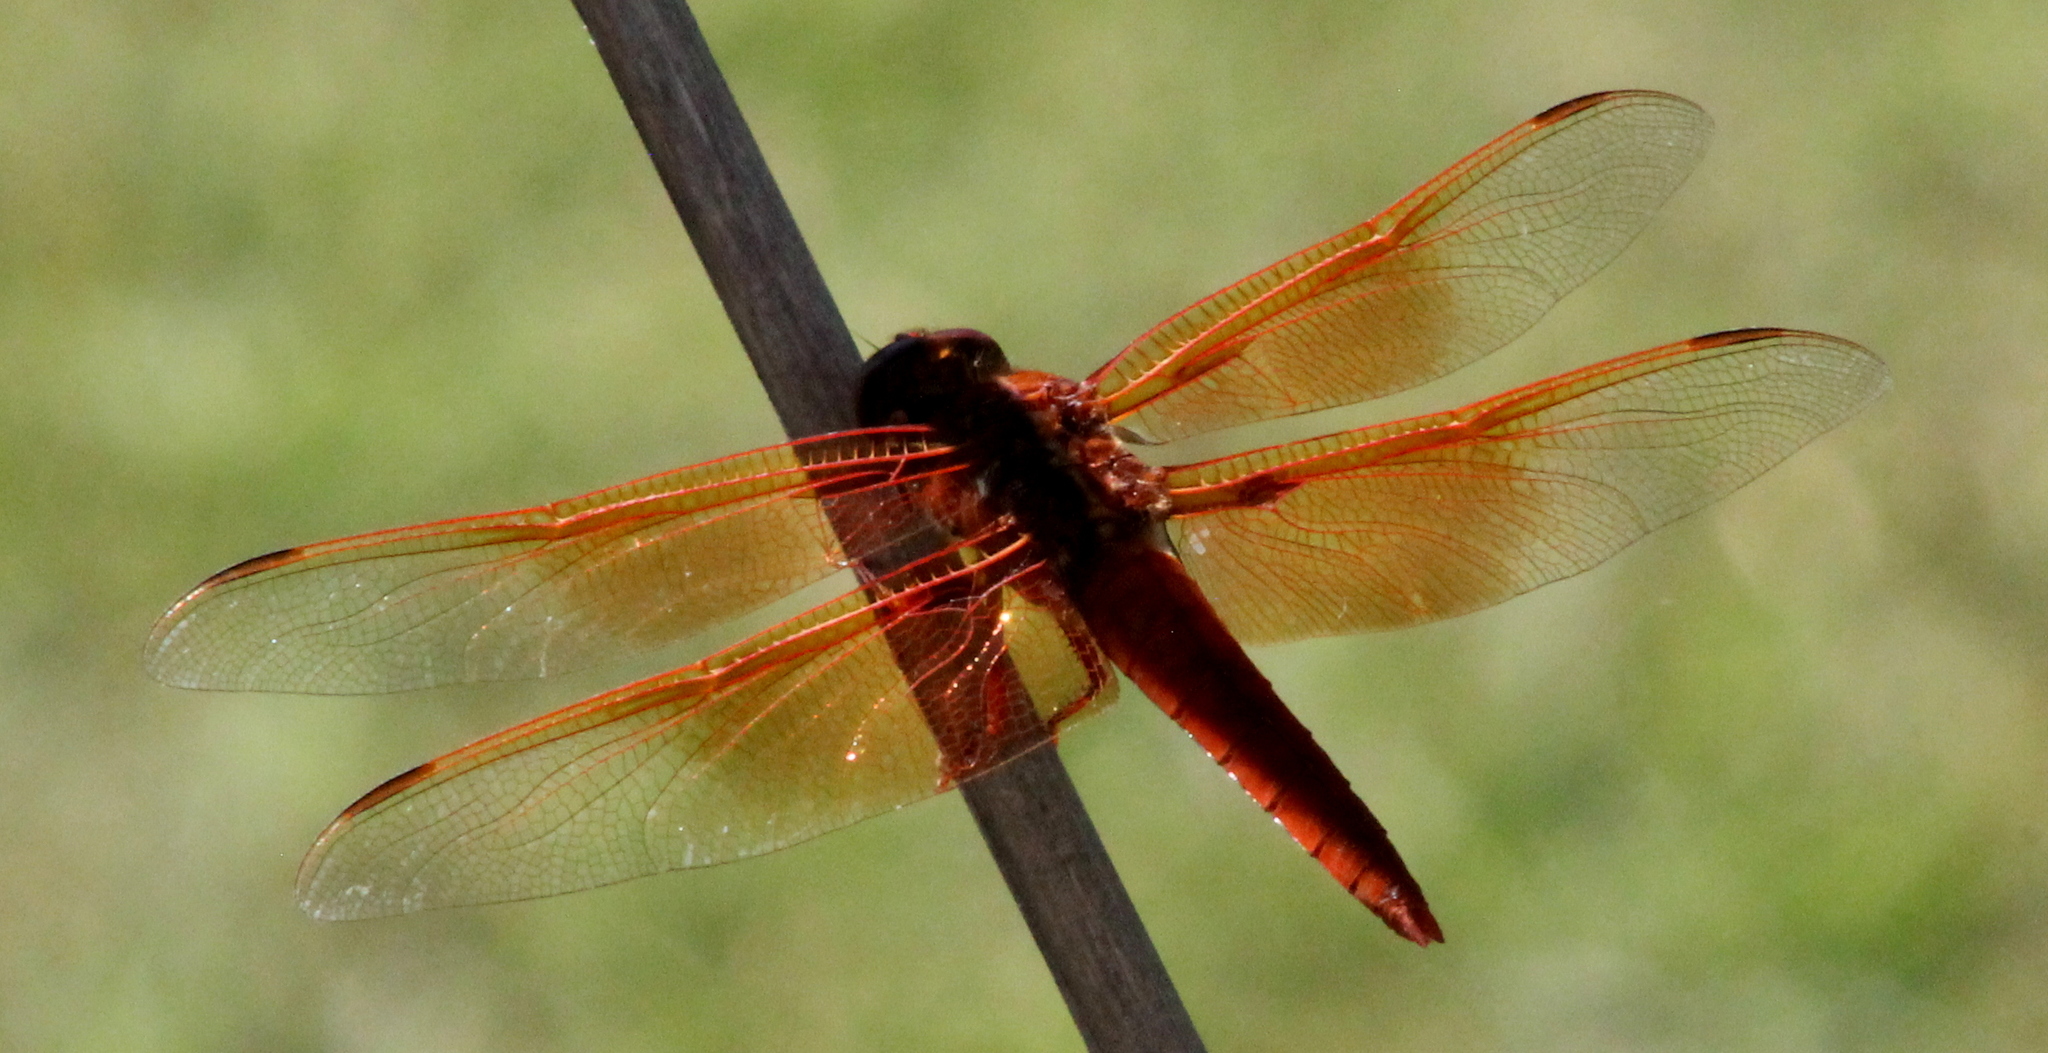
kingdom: Animalia
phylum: Arthropoda
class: Insecta
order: Odonata
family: Libellulidae
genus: Libellula
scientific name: Libellula saturata
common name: Flame skimmer
